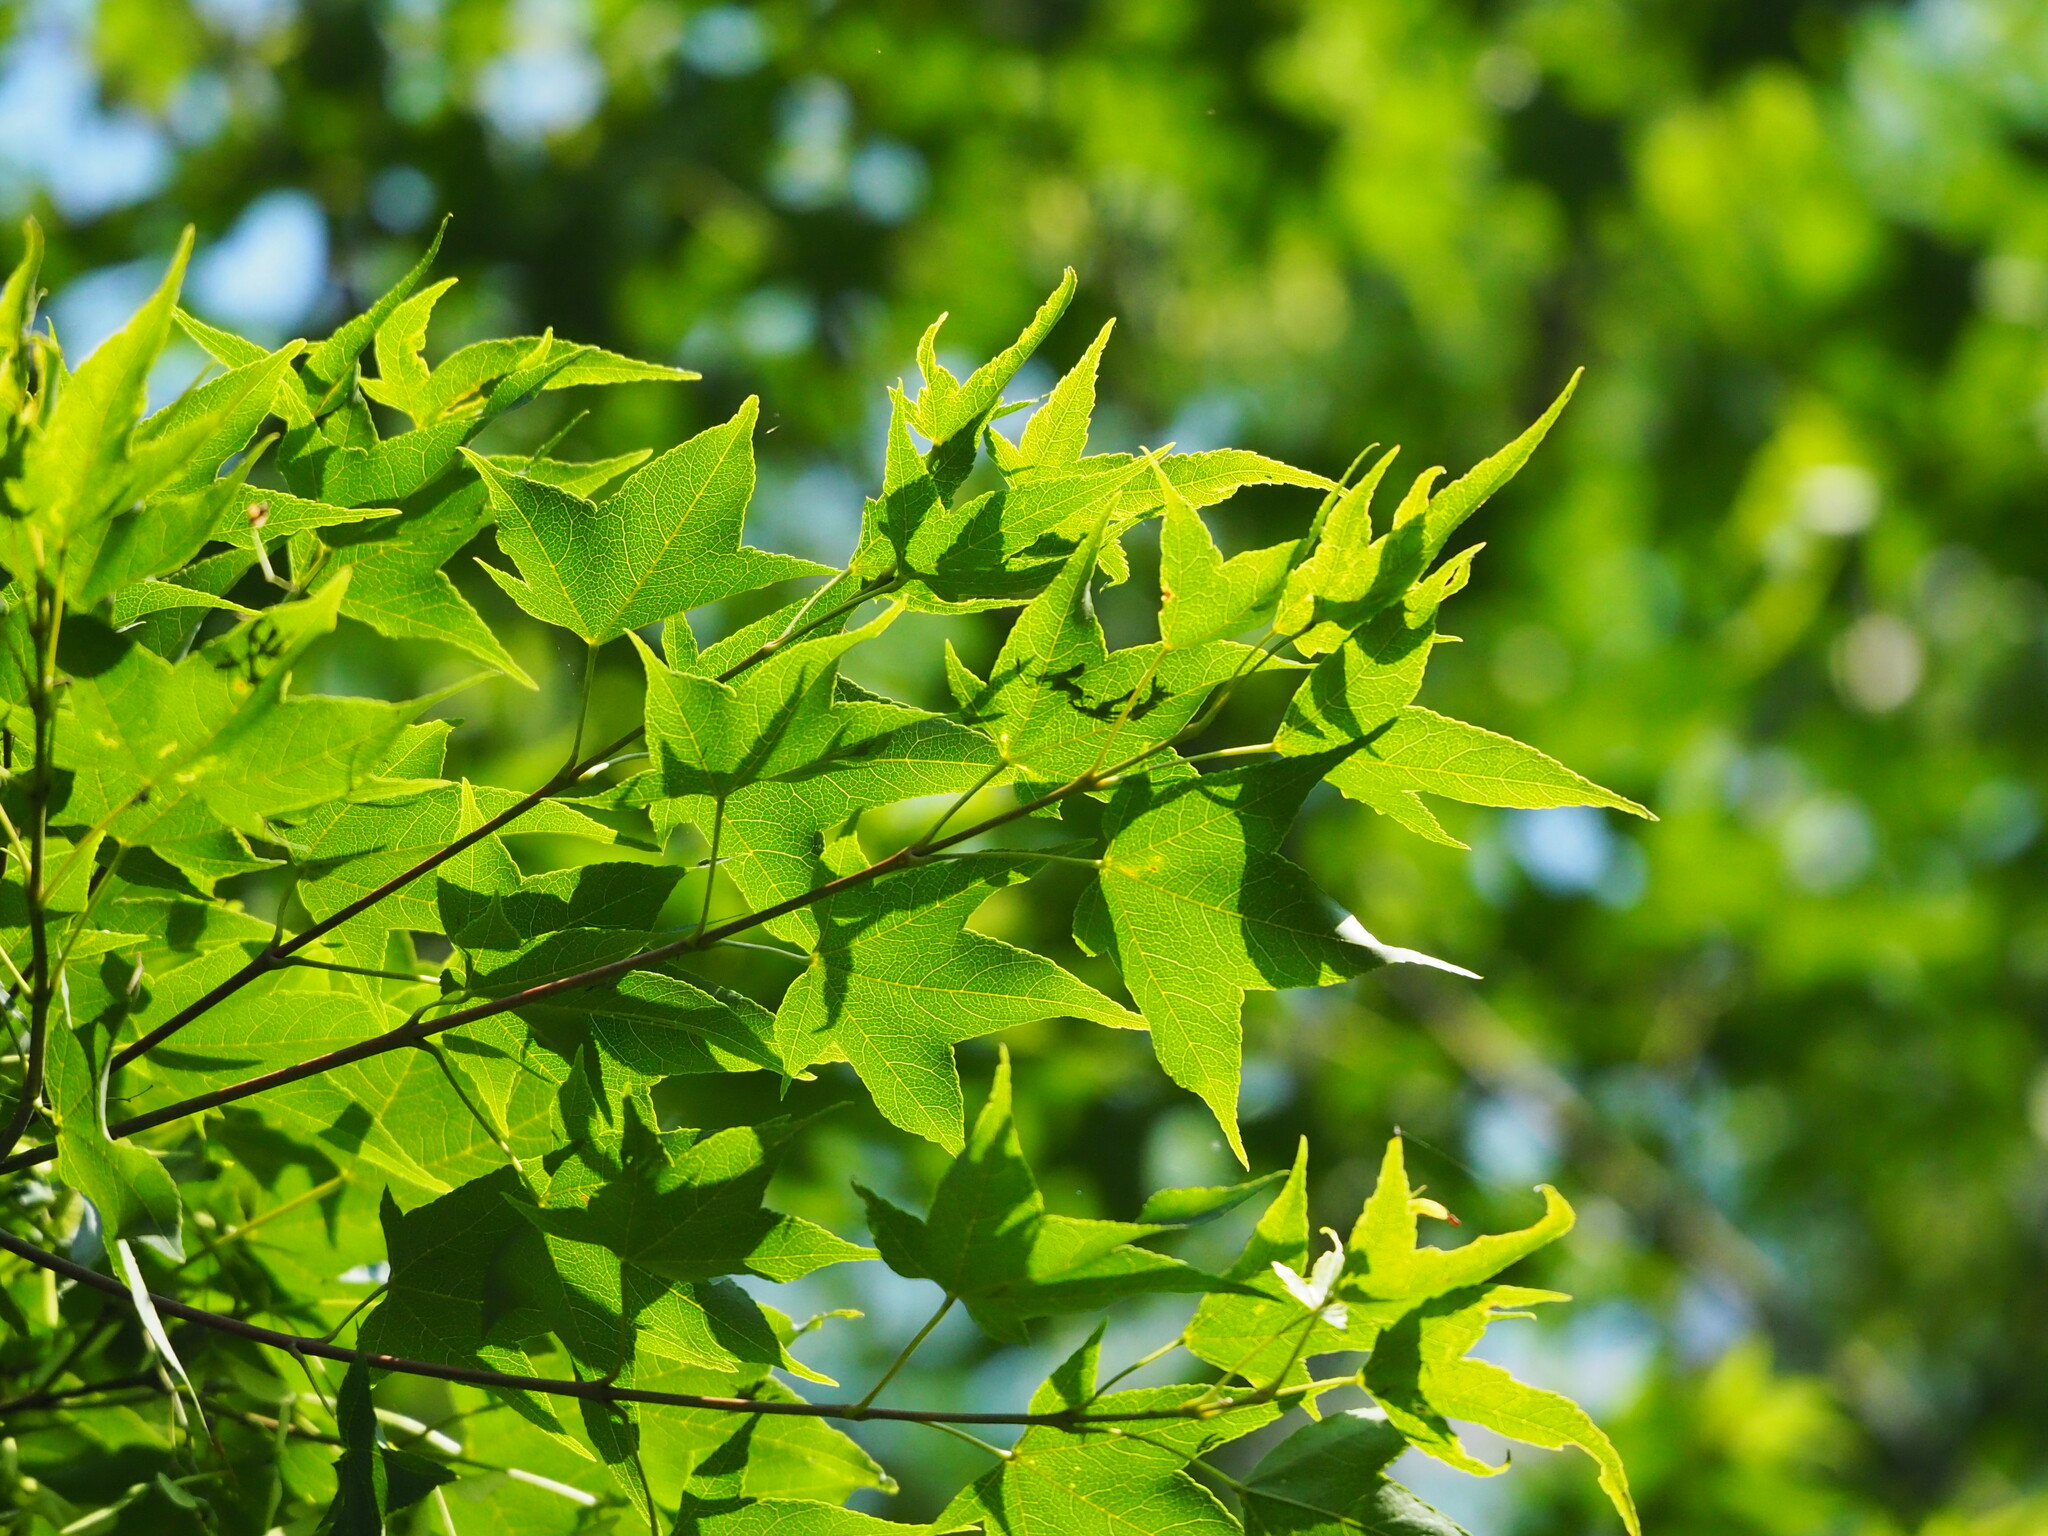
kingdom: Plantae
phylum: Tracheophyta
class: Magnoliopsida
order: Sapindales
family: Sapindaceae
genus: Acer
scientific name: Acer serrulatum
